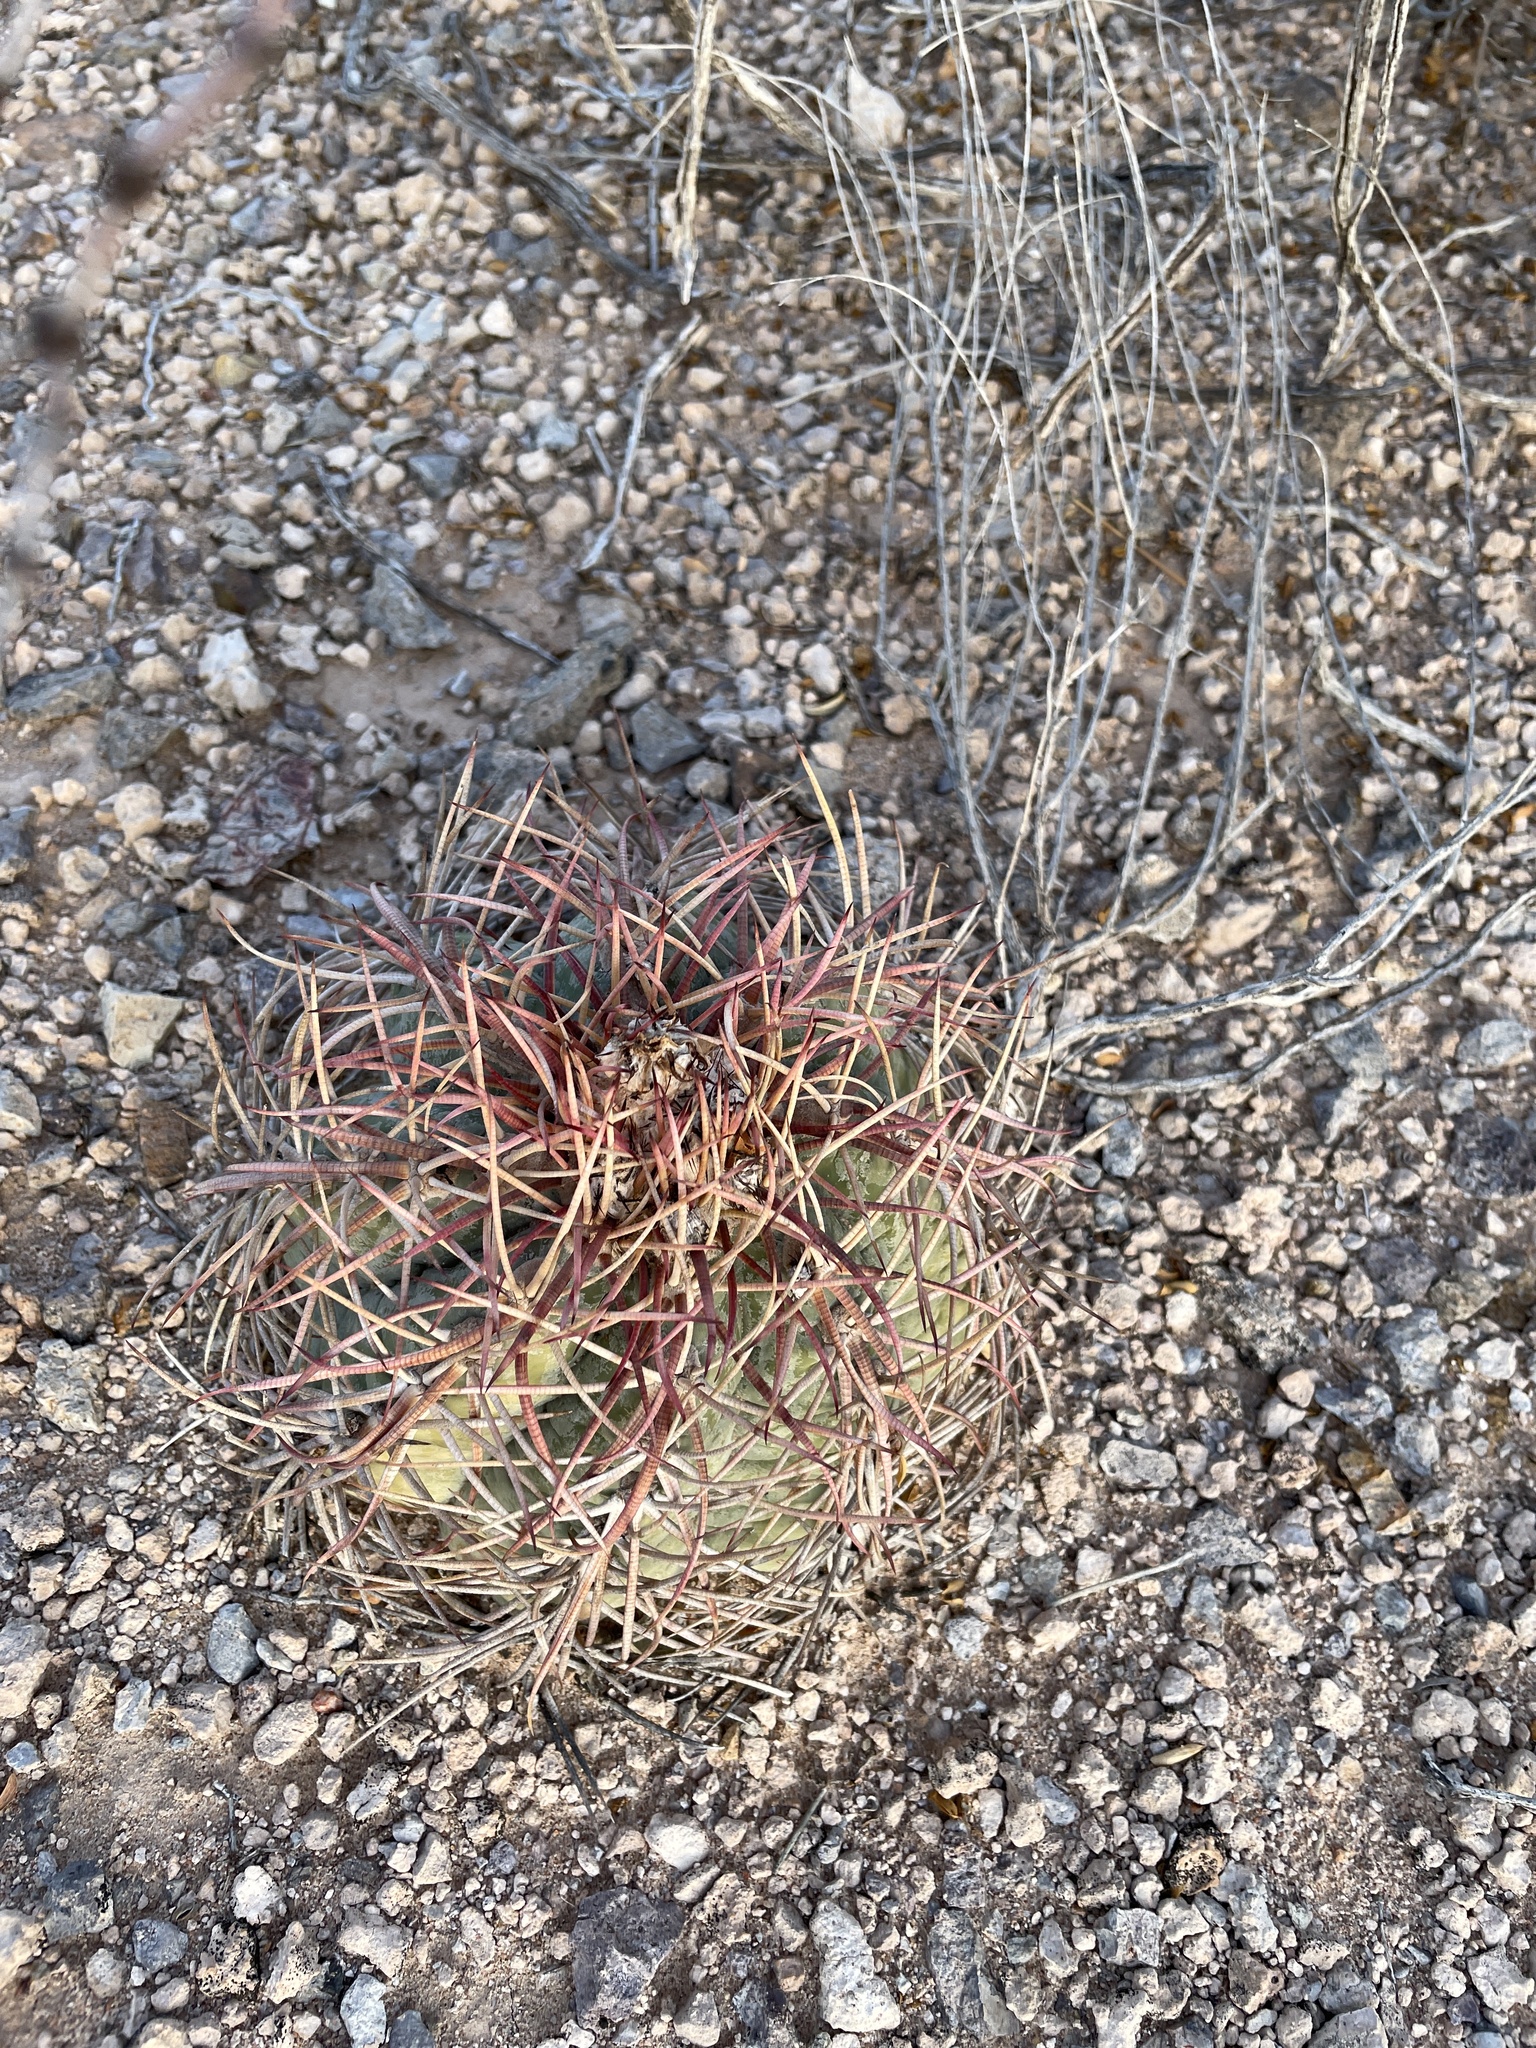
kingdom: Plantae
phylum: Tracheophyta
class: Magnoliopsida
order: Caryophyllales
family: Cactaceae
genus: Echinocactus
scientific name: Echinocactus horizonthalonius
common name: Devilshead
